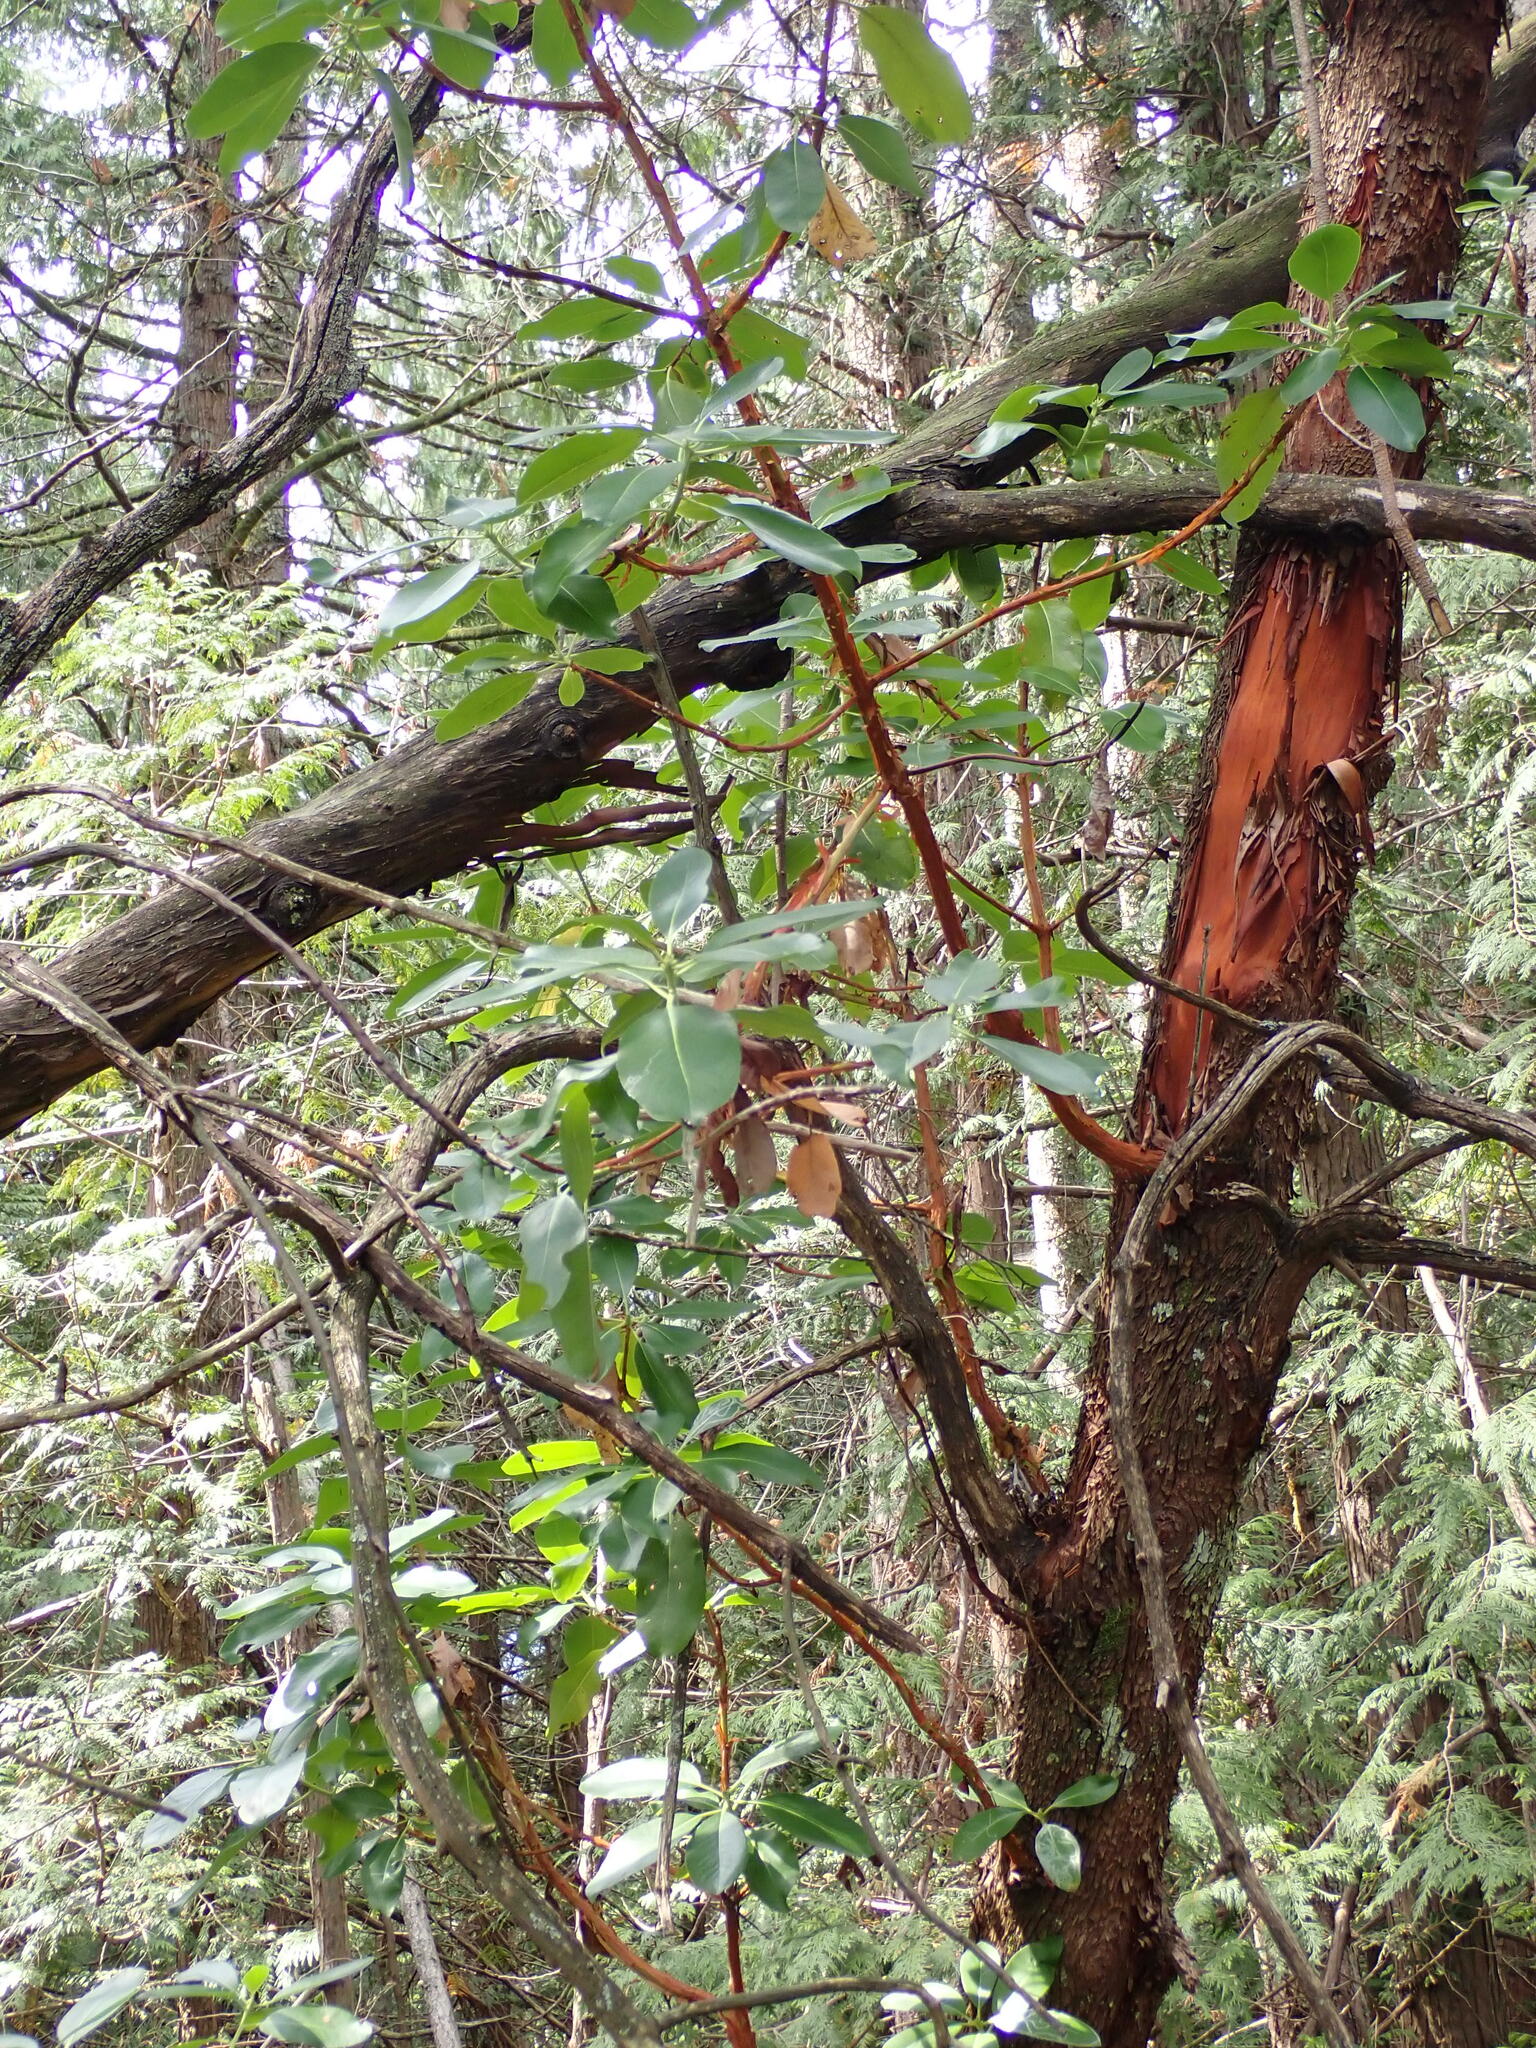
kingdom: Plantae
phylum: Tracheophyta
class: Magnoliopsida
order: Ericales
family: Ericaceae
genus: Arbutus
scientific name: Arbutus menziesii
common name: Pacific madrone
